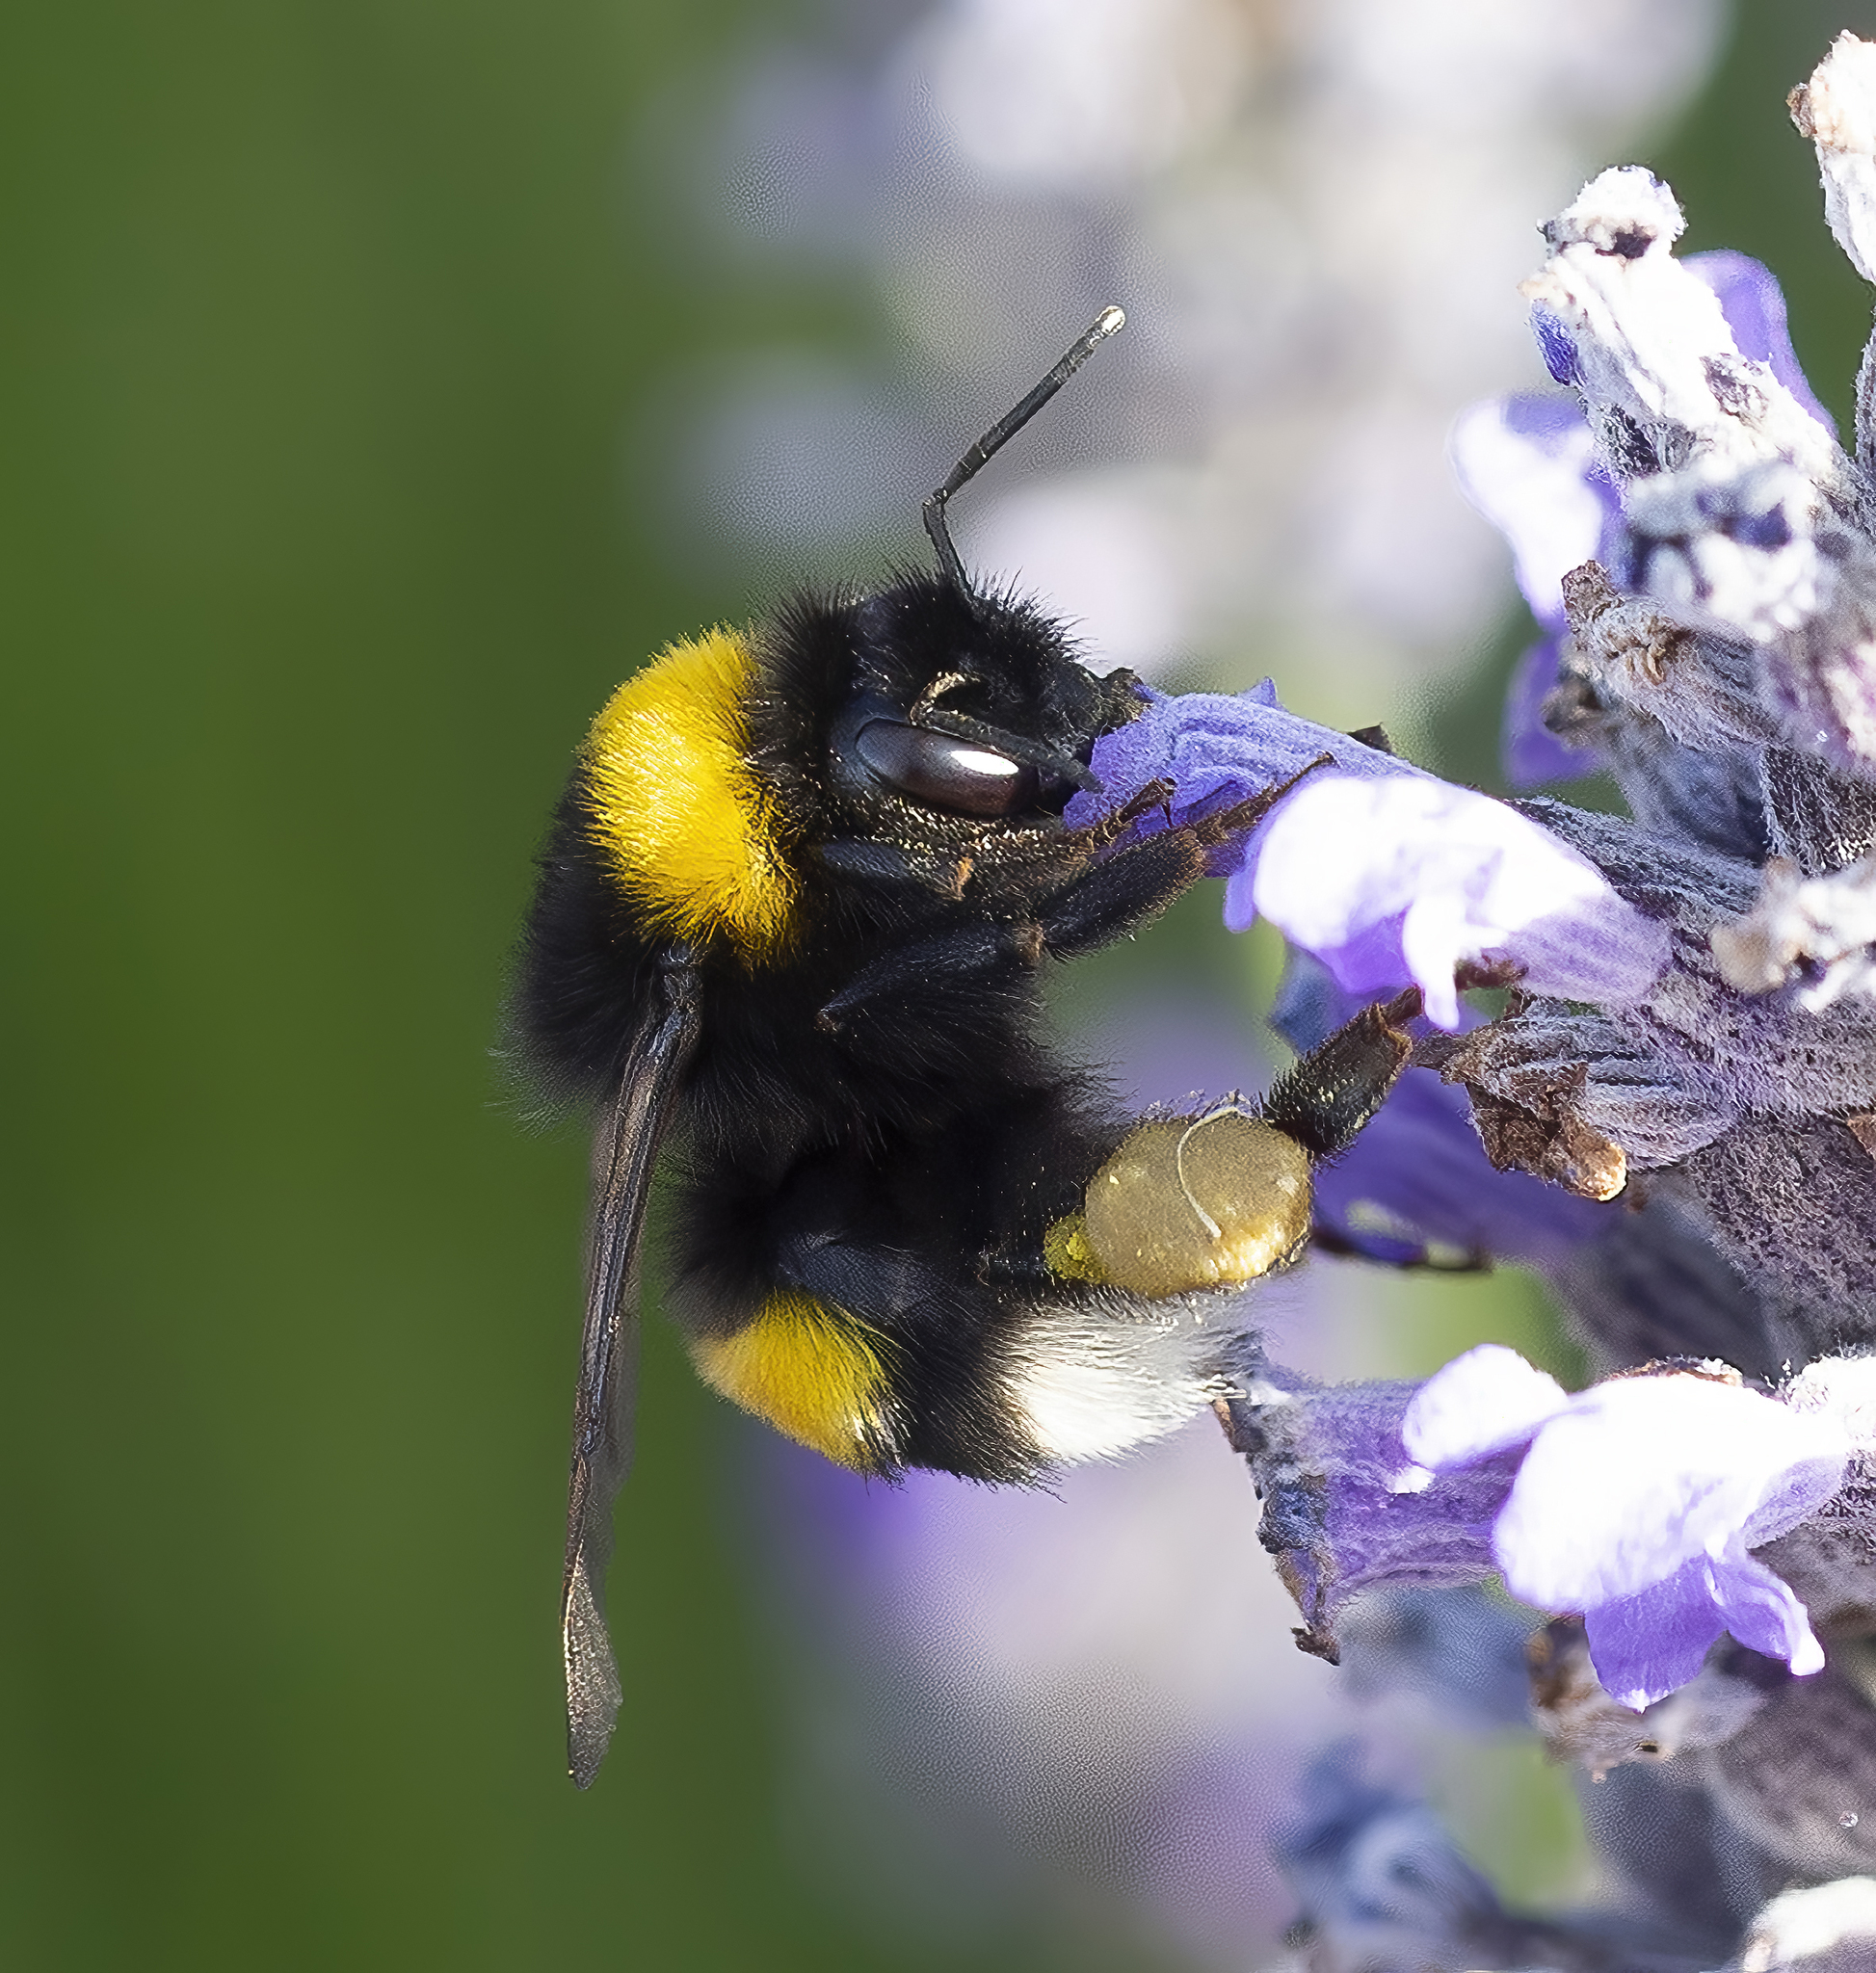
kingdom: Animalia
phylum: Arthropoda
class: Insecta
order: Hymenoptera
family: Apidae
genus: Bombus
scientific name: Bombus terrestris
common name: Buff-tailed bumblebee
